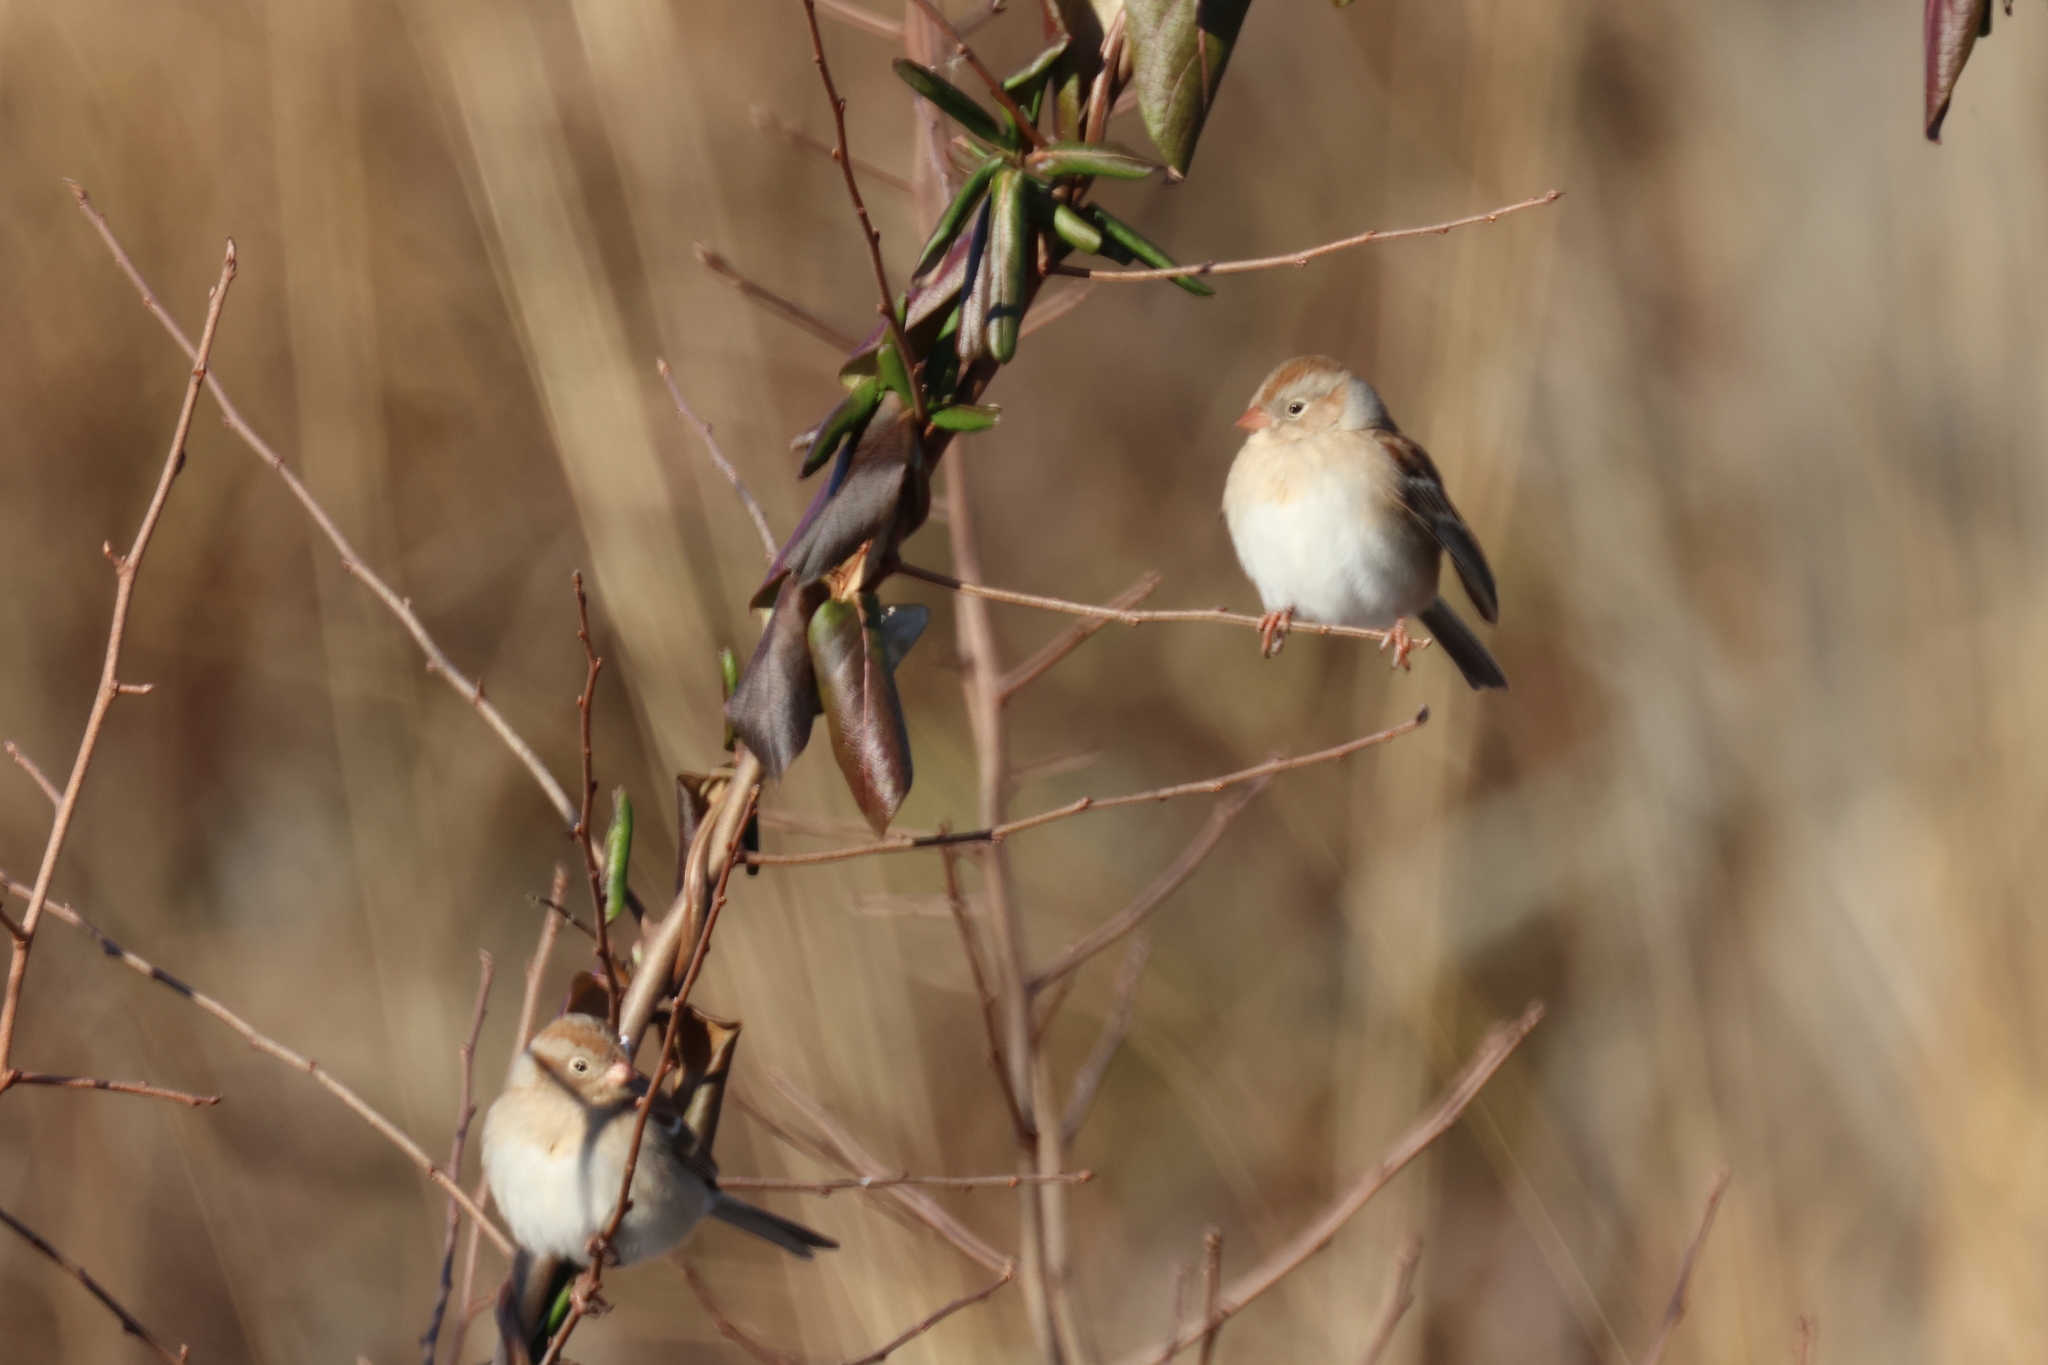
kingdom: Animalia
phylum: Chordata
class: Aves
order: Passeriformes
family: Passerellidae
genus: Spizella
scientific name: Spizella pusilla
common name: Field sparrow
